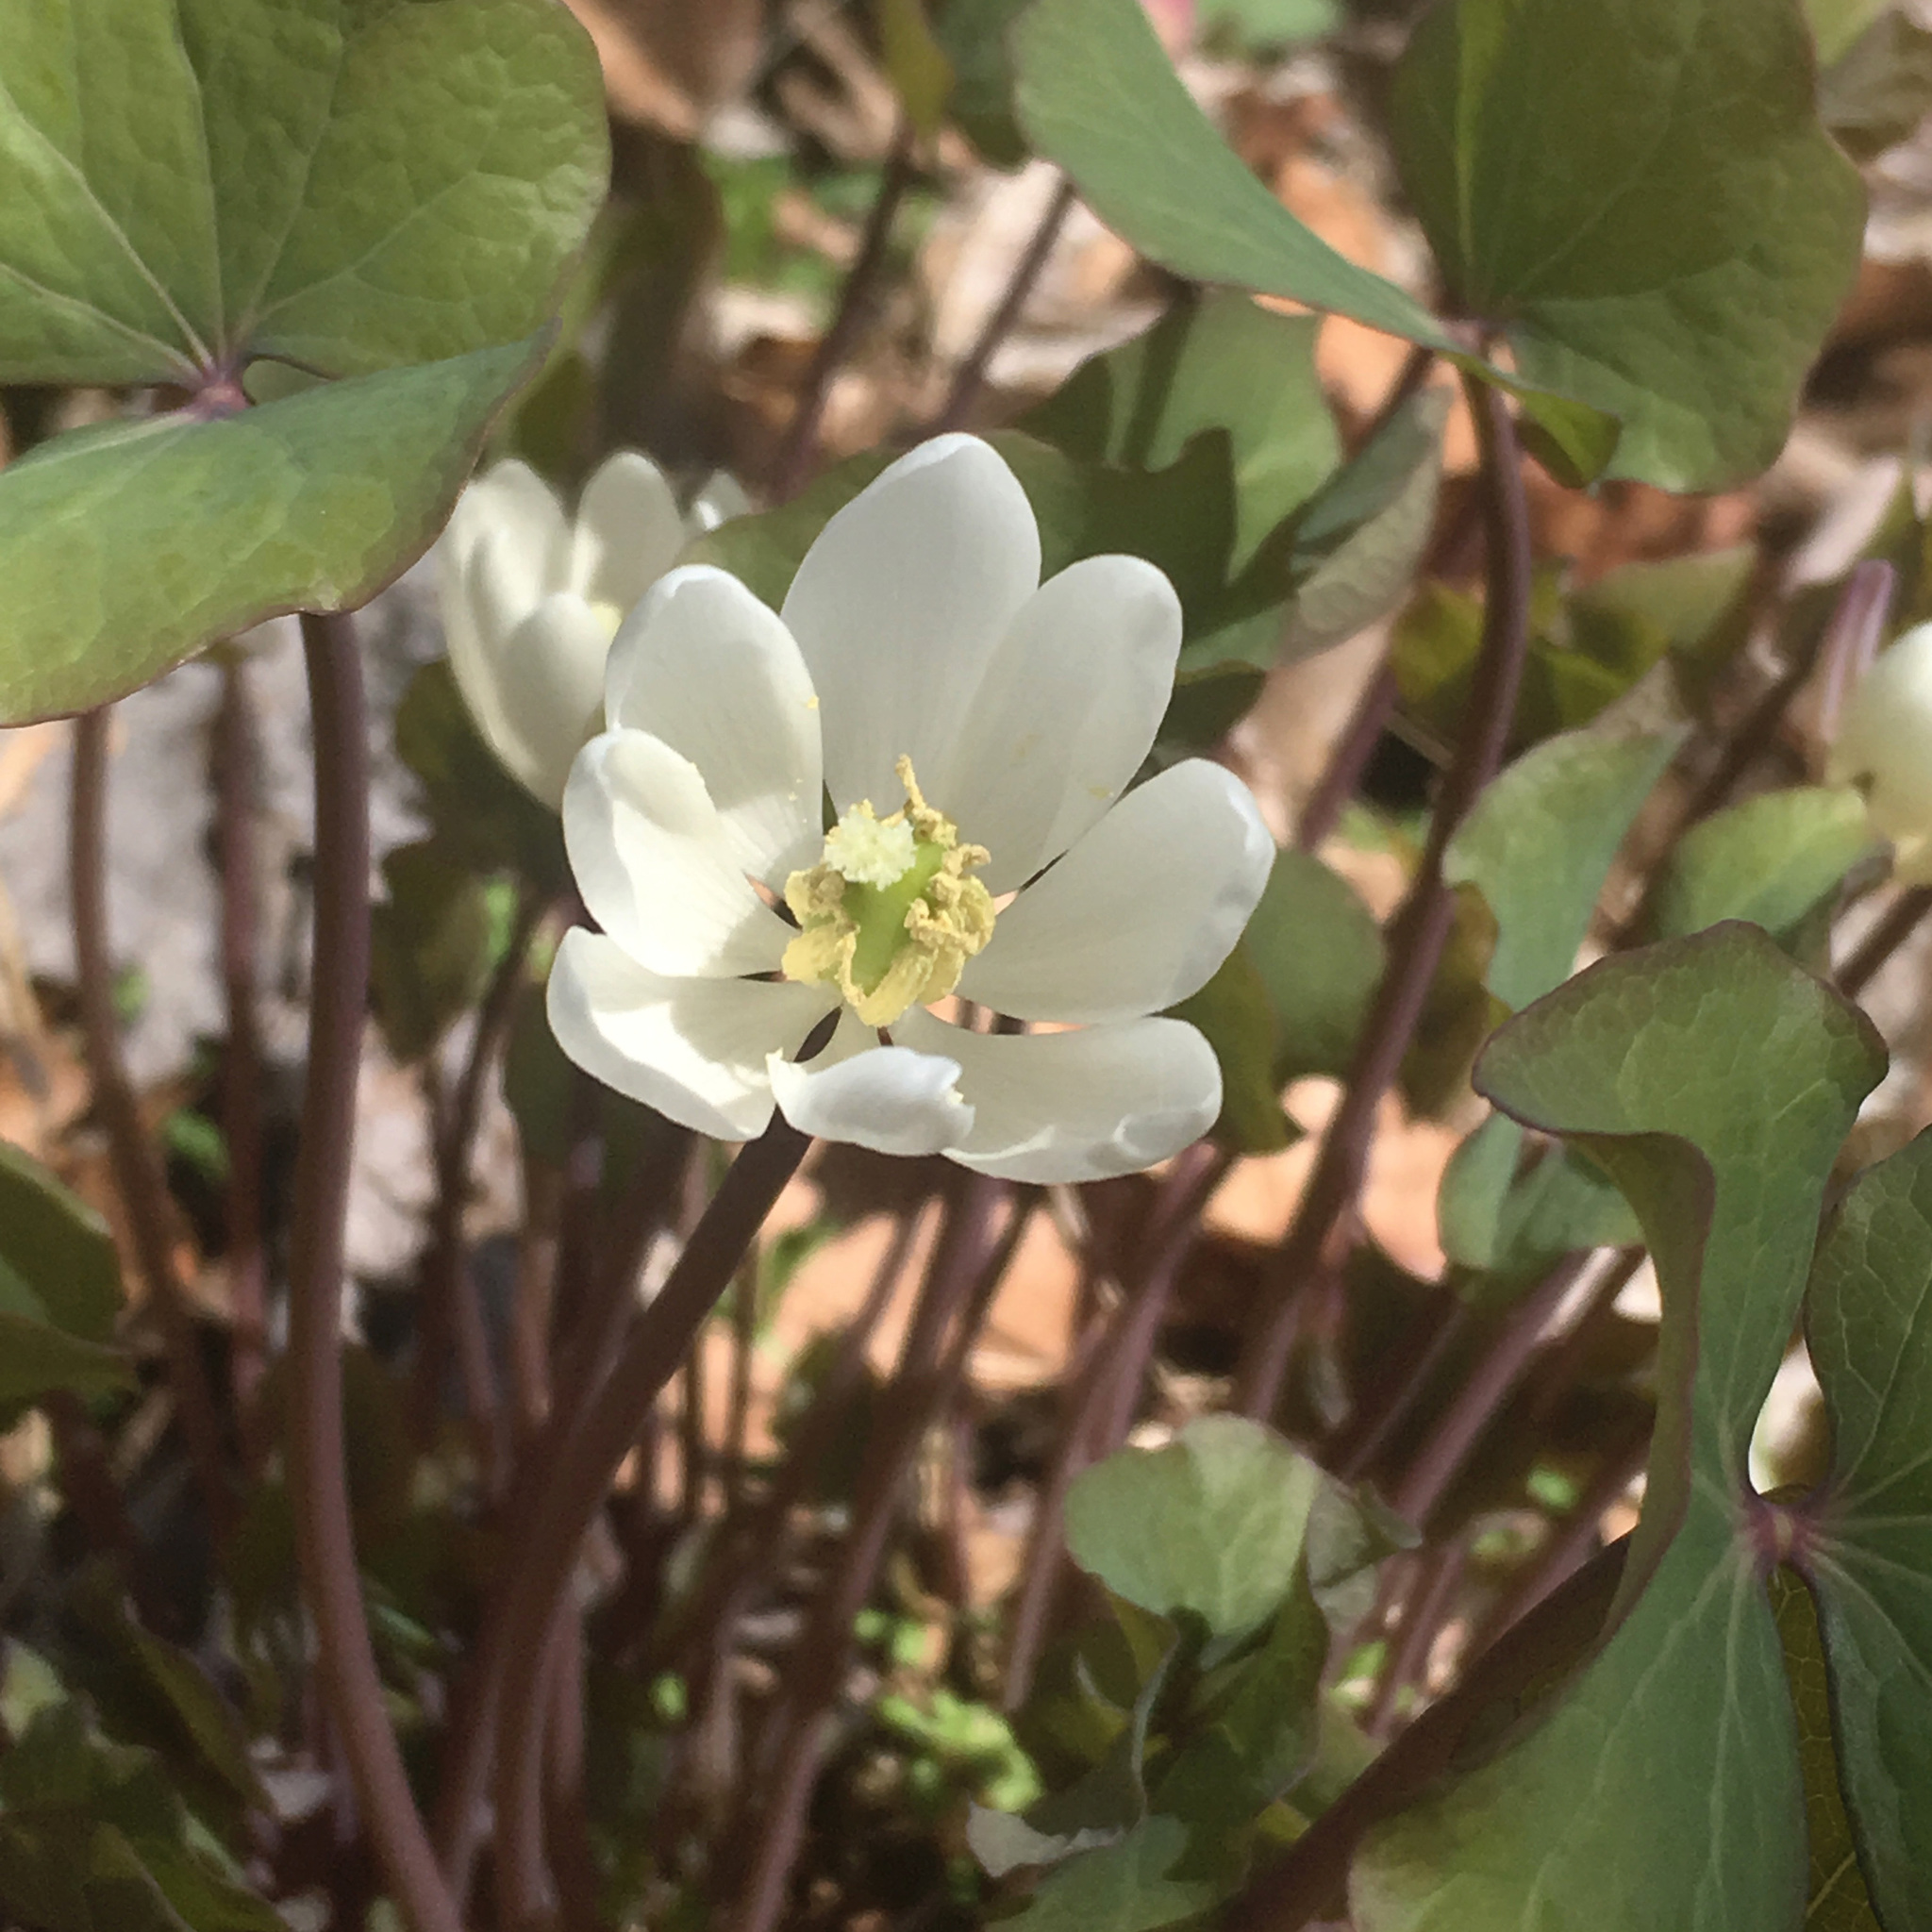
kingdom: Plantae
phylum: Tracheophyta
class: Magnoliopsida
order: Ranunculales
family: Berberidaceae
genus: Jeffersonia
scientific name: Jeffersonia diphylla
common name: Rheumatism-root
